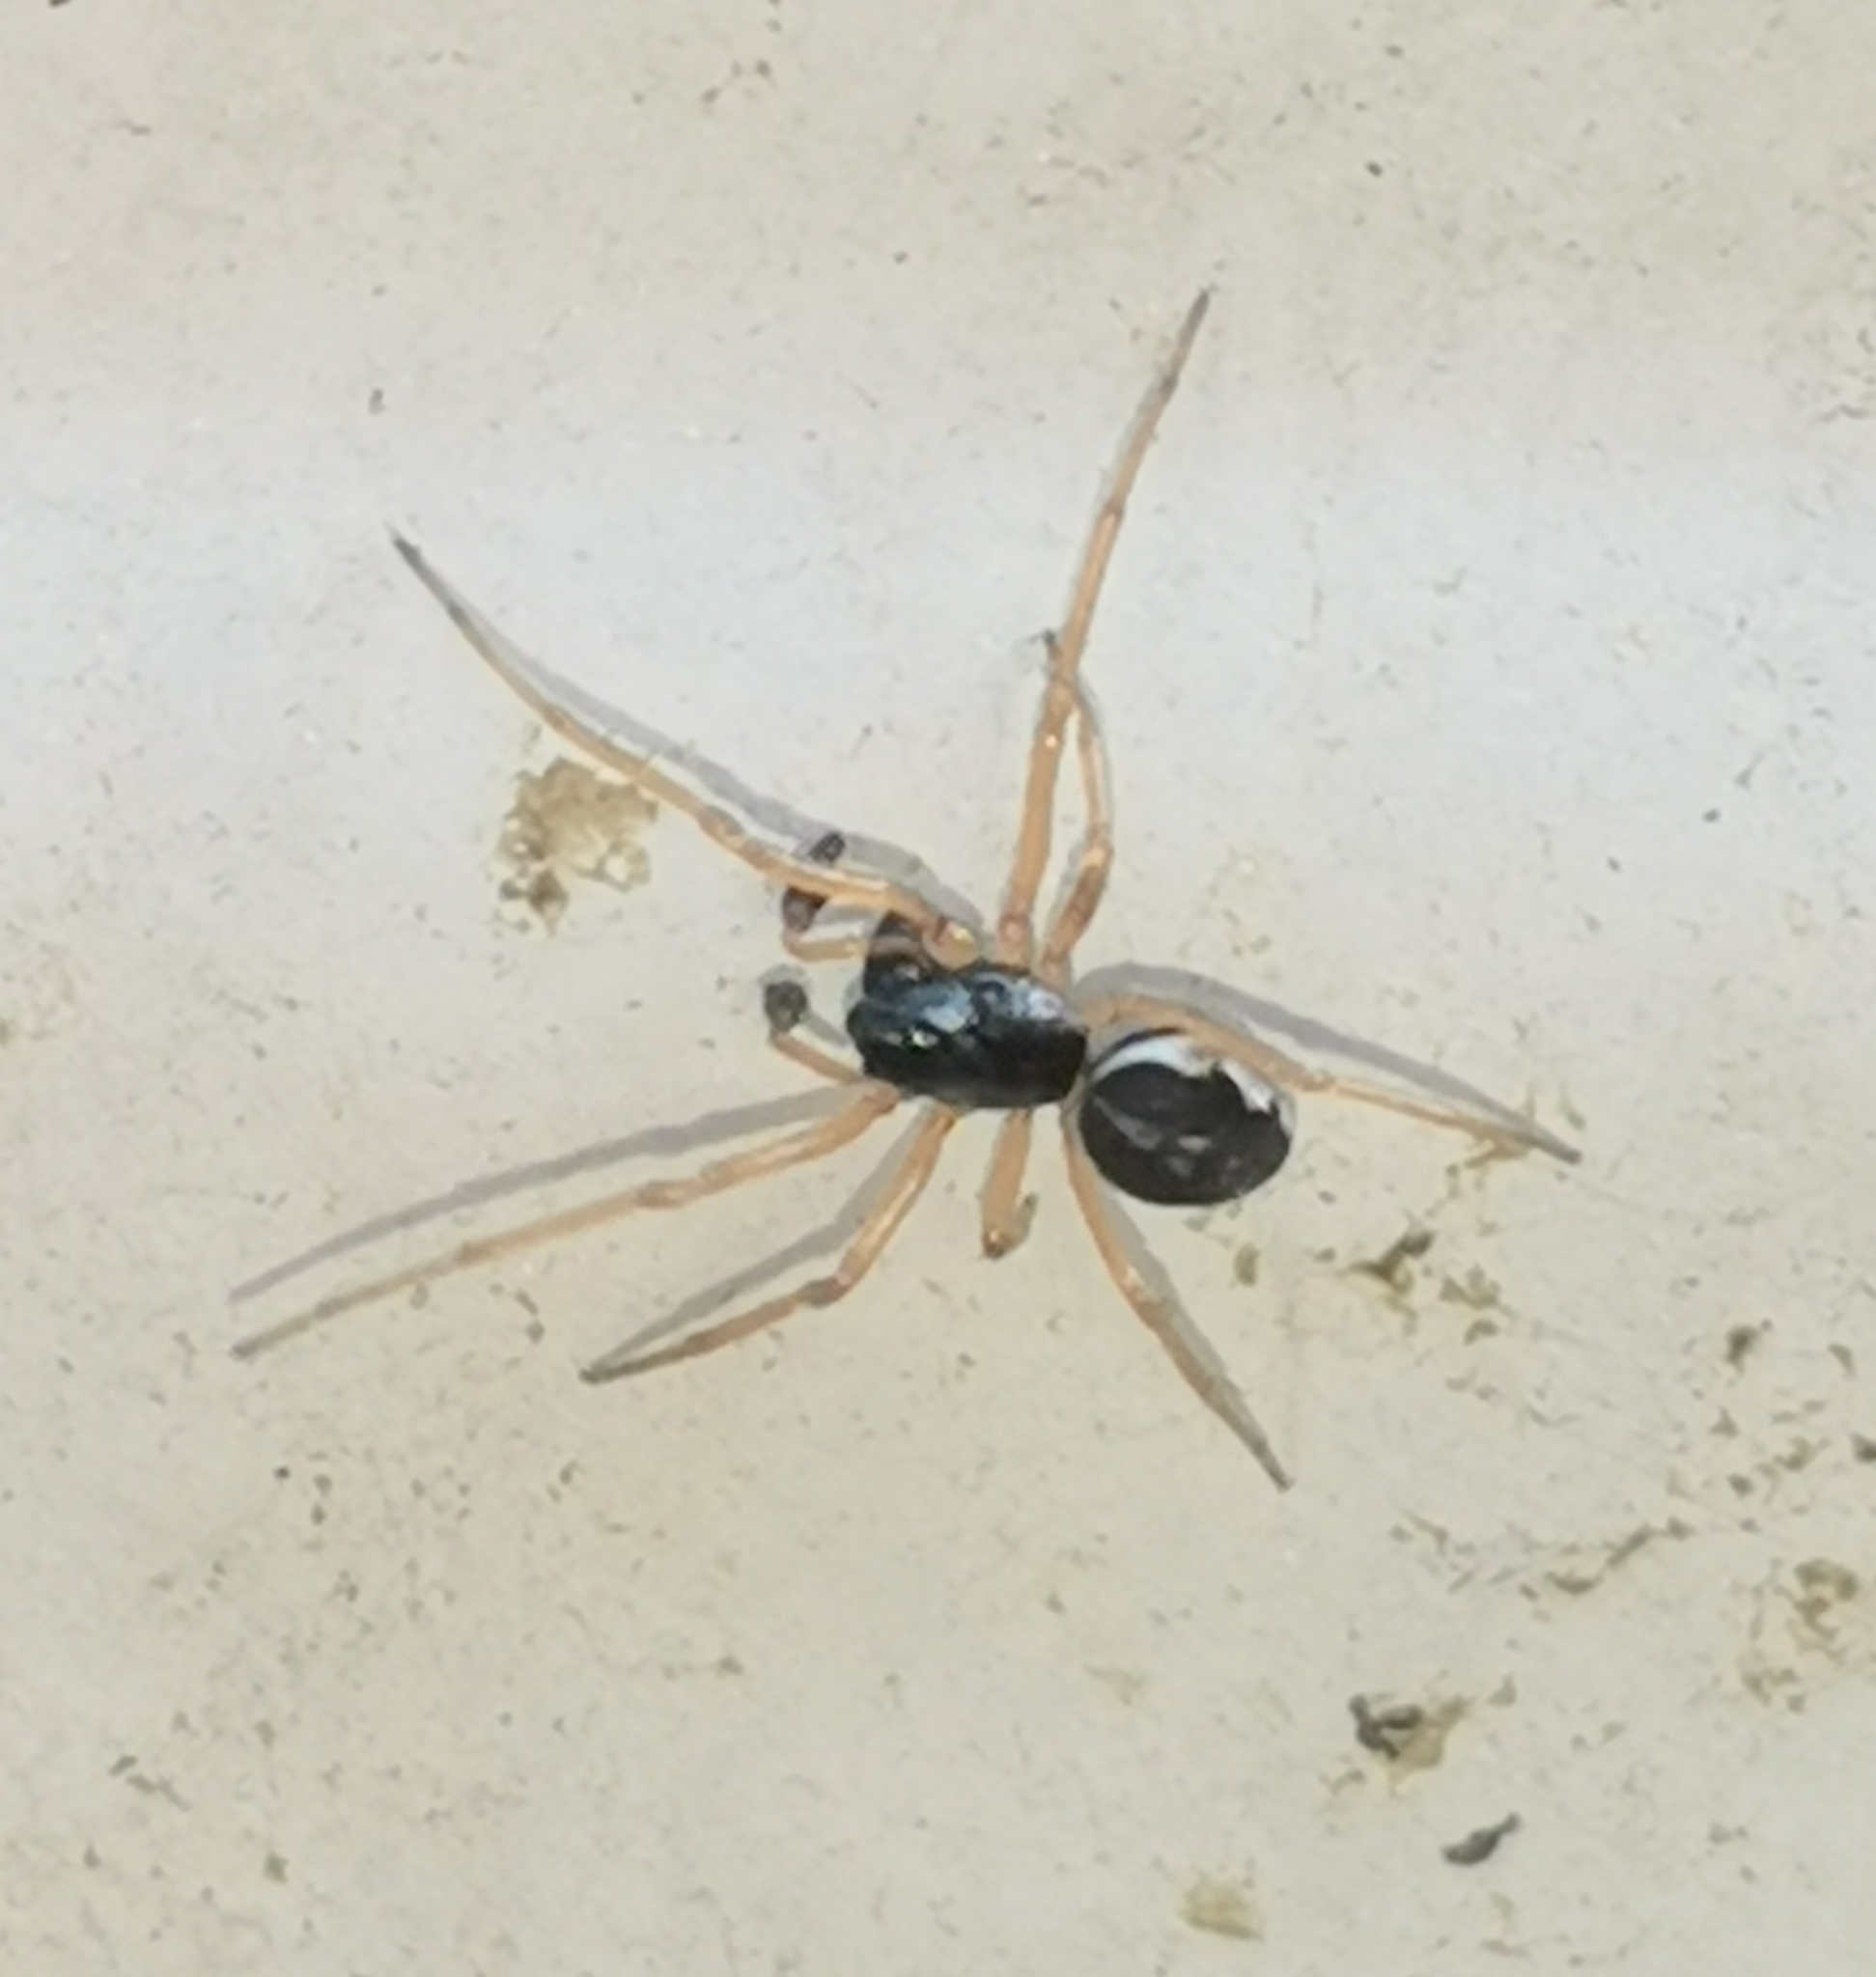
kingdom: Animalia
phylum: Arthropoda
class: Arachnida
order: Araneae
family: Tetragnathidae
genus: Pachygnatha
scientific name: Pachygnatha degeeri
